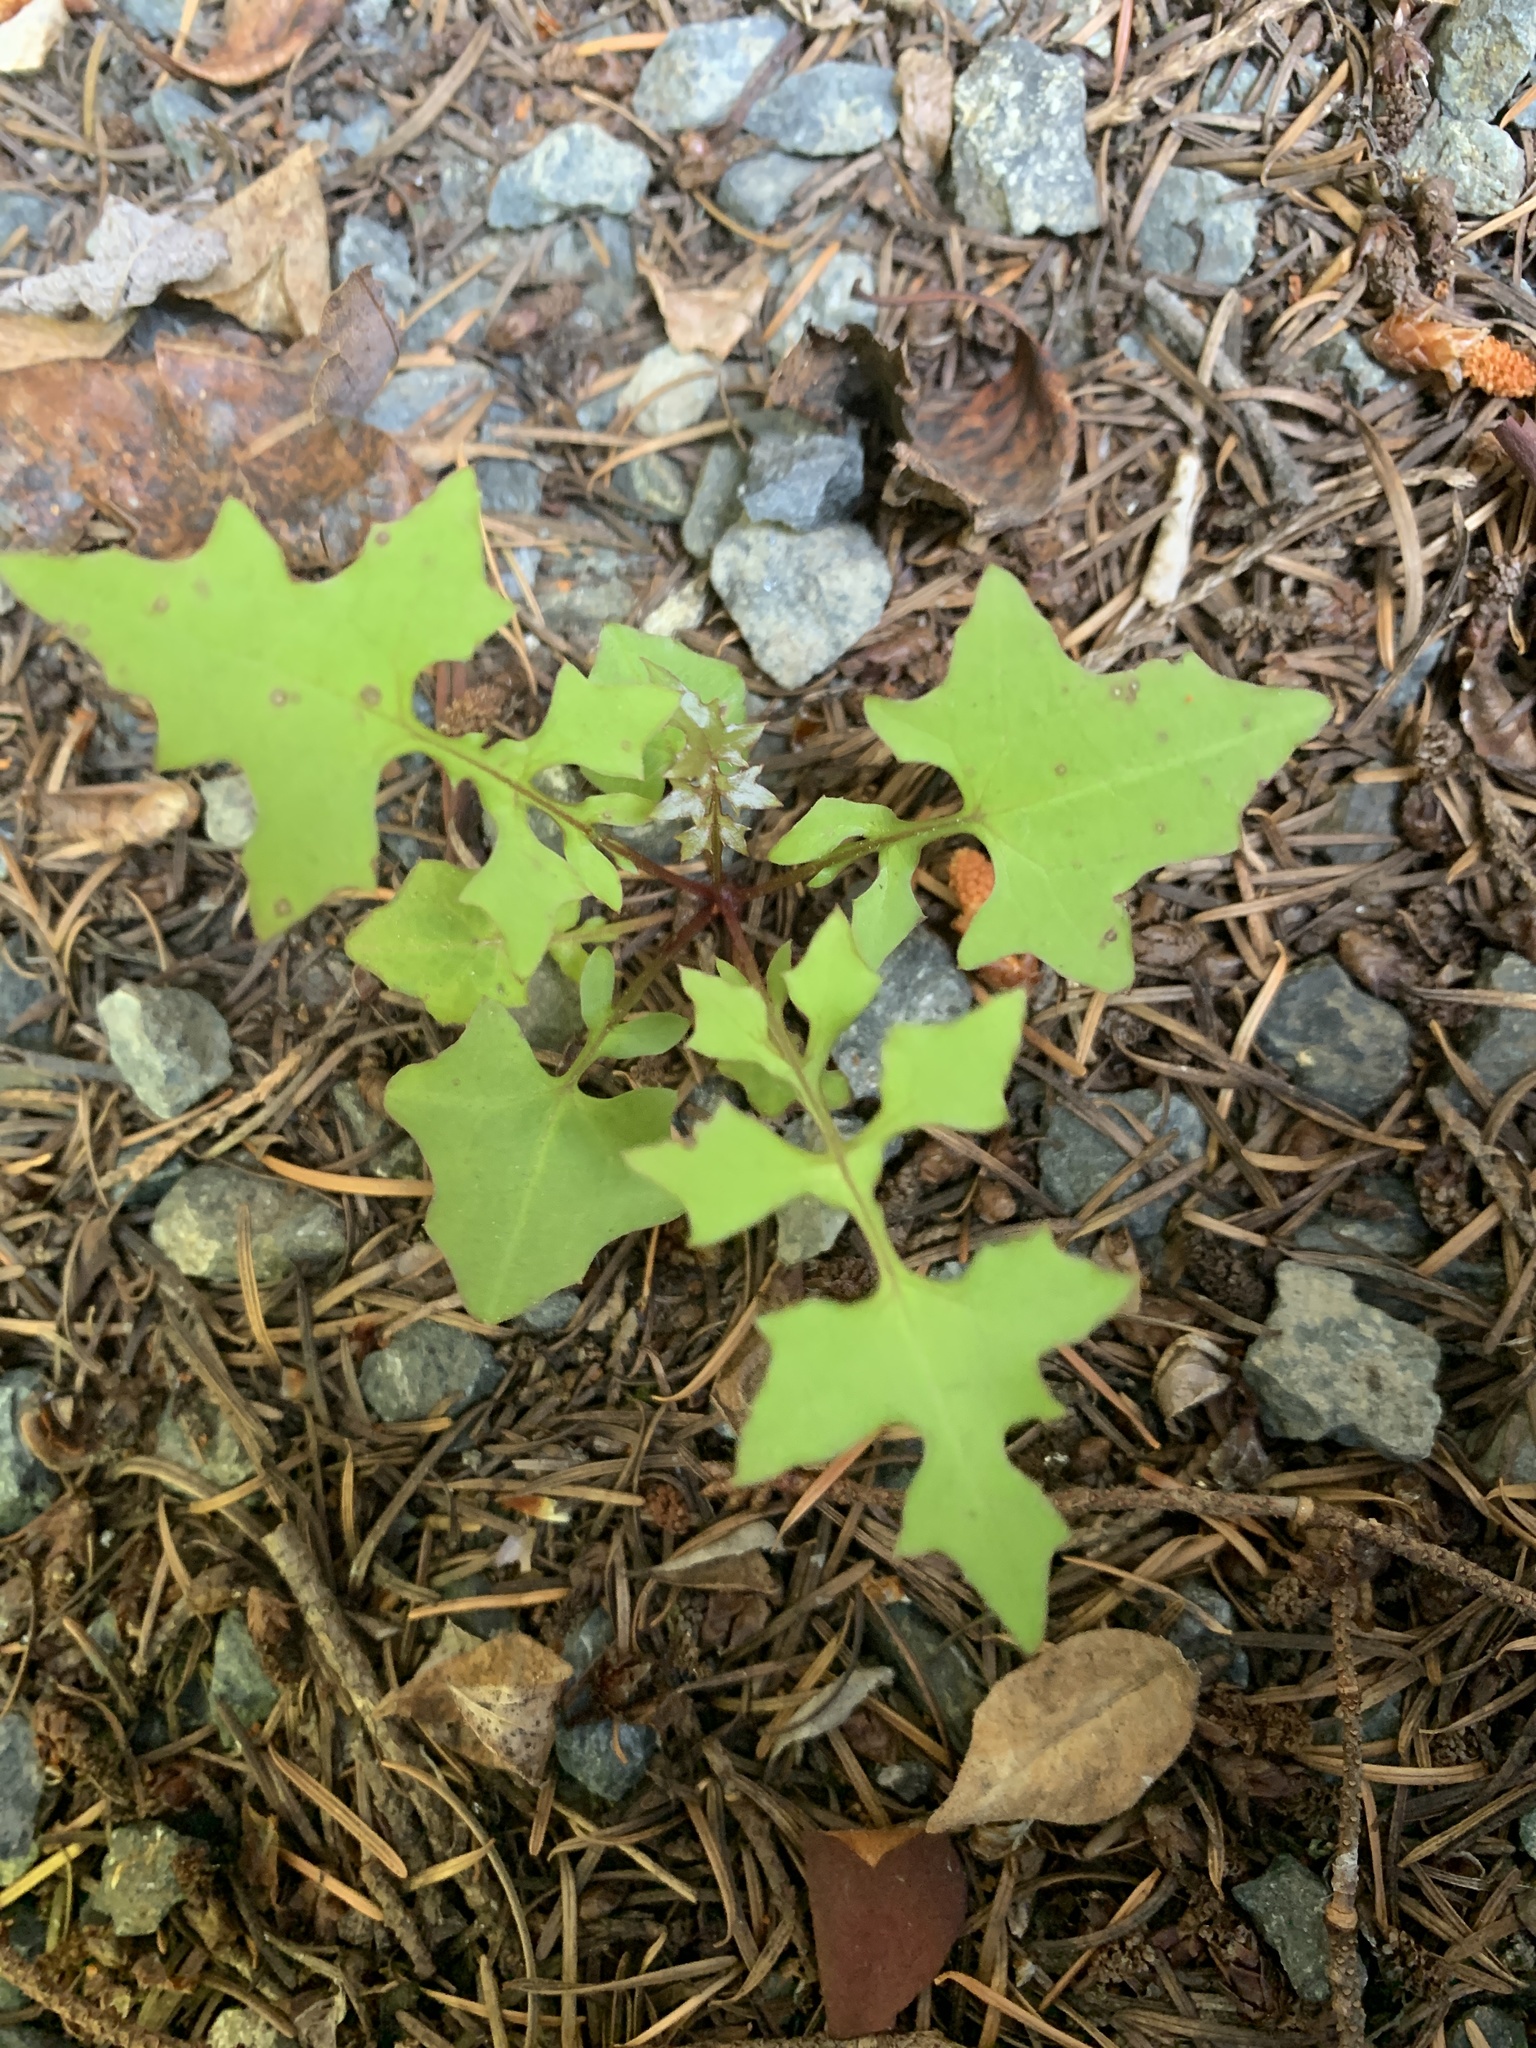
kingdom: Plantae
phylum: Tracheophyta
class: Magnoliopsida
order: Asterales
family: Asteraceae
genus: Mycelis
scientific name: Mycelis muralis
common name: Wall lettuce
